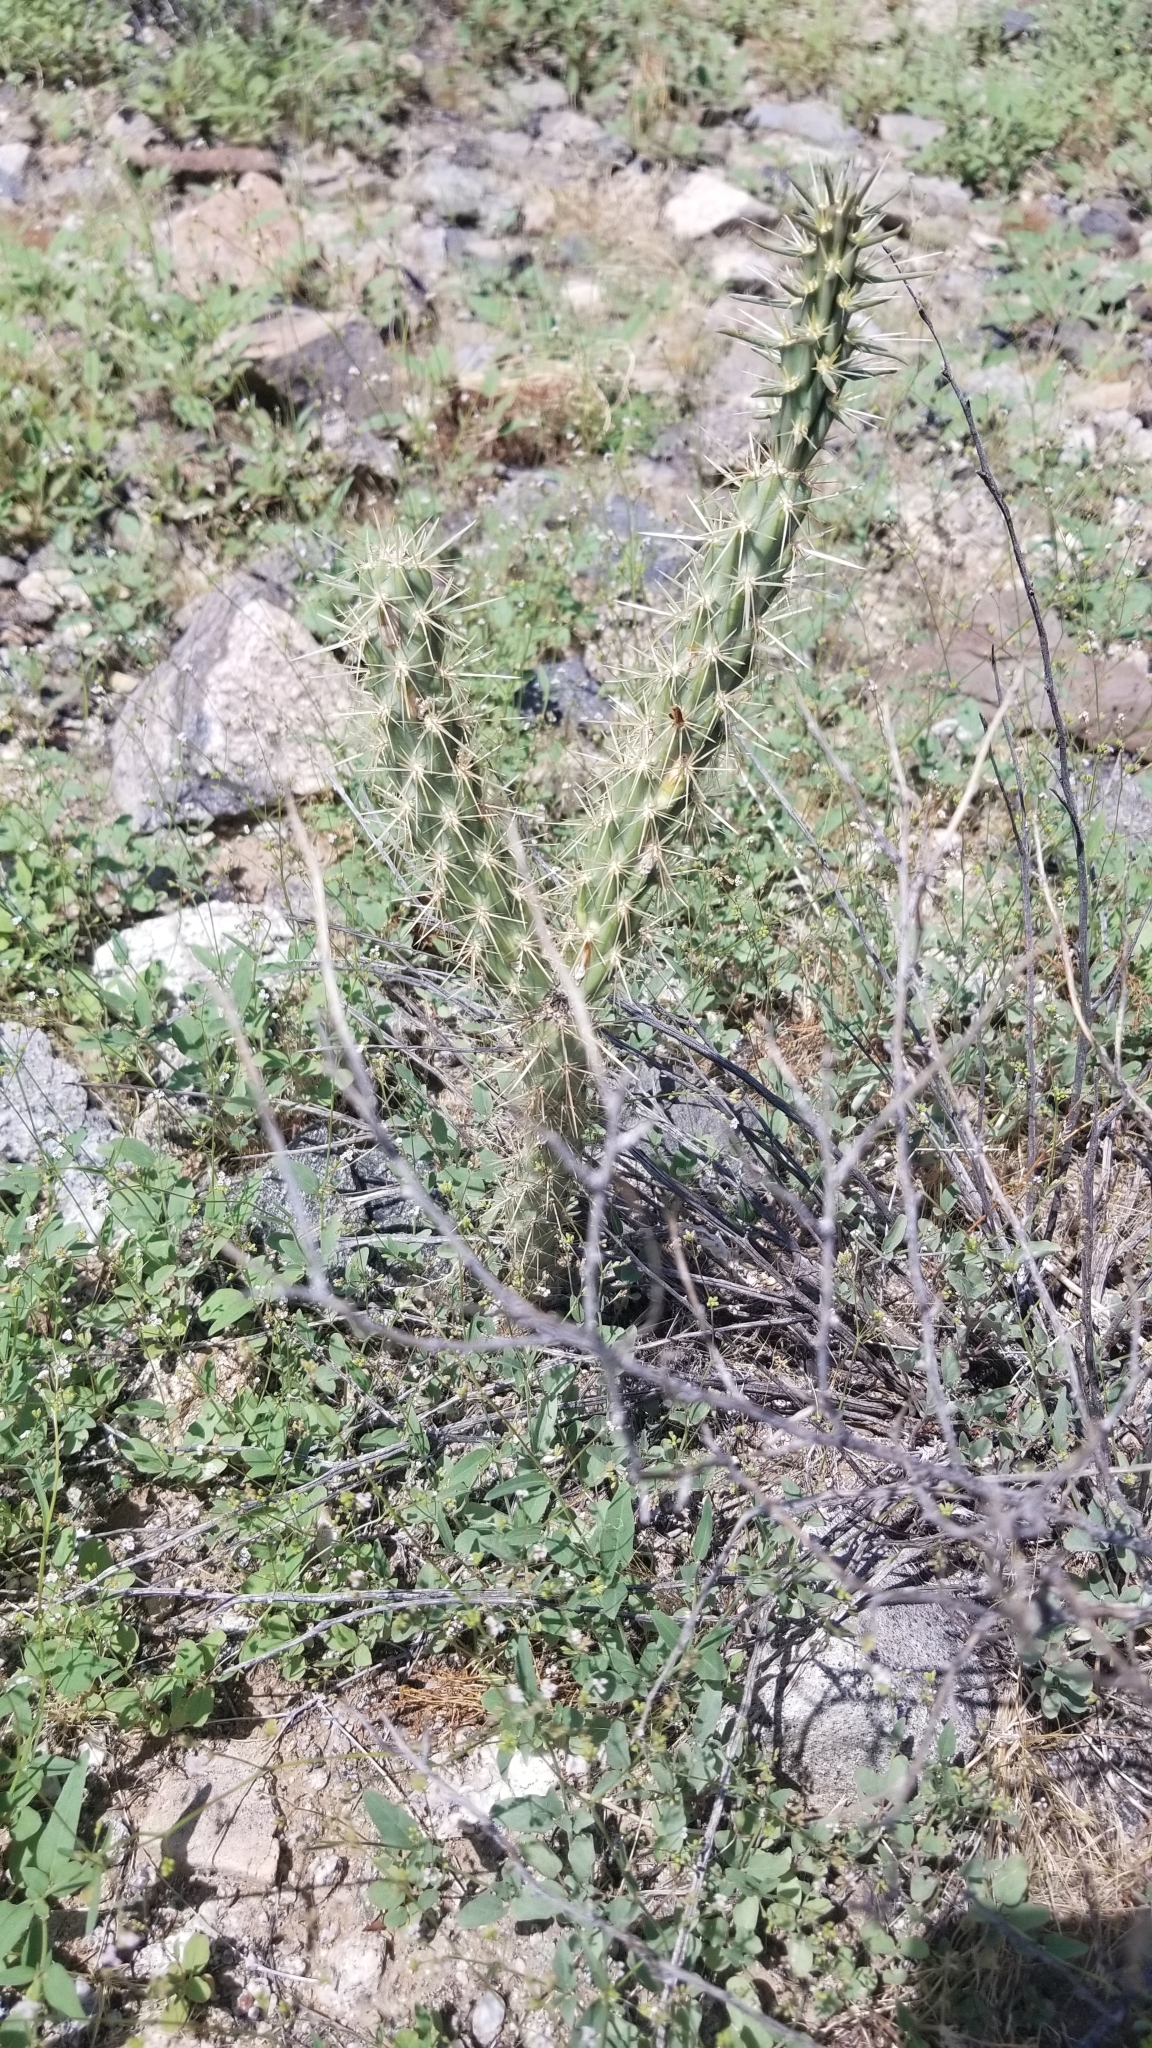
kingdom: Plantae
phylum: Tracheophyta
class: Magnoliopsida
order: Caryophyllales
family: Cactaceae
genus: Cylindropuntia
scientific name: Cylindropuntia acanthocarpa
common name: Buckhorn cholla
